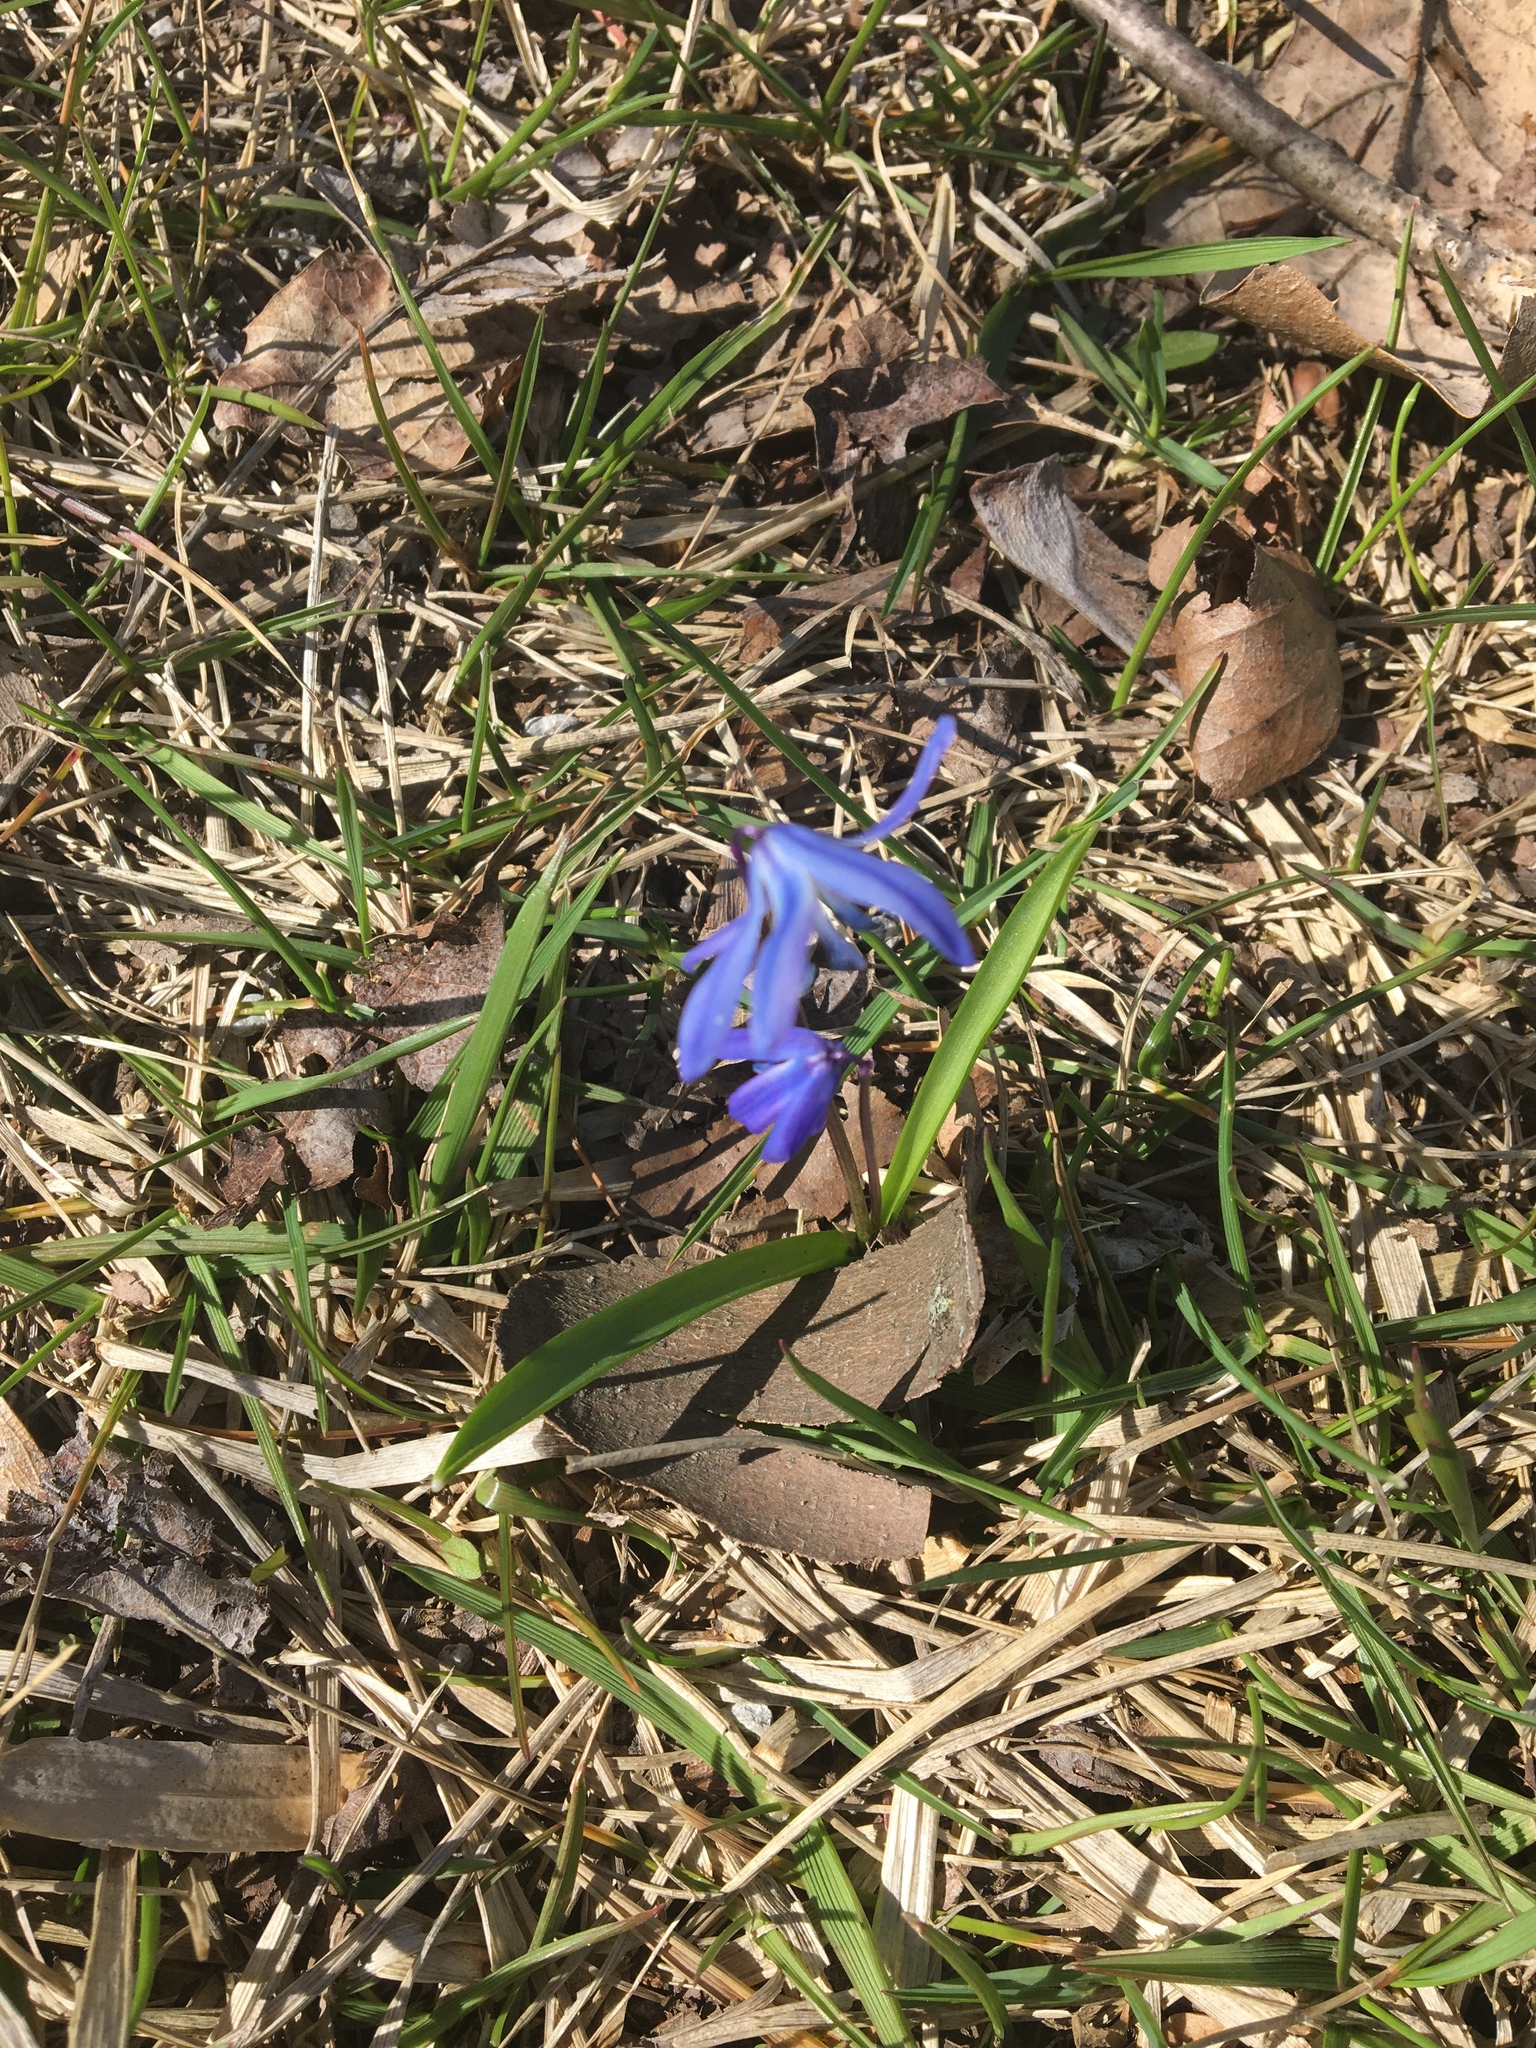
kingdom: Plantae
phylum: Tracheophyta
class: Liliopsida
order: Asparagales
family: Asparagaceae
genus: Scilla
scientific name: Scilla siberica
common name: Siberian squill
